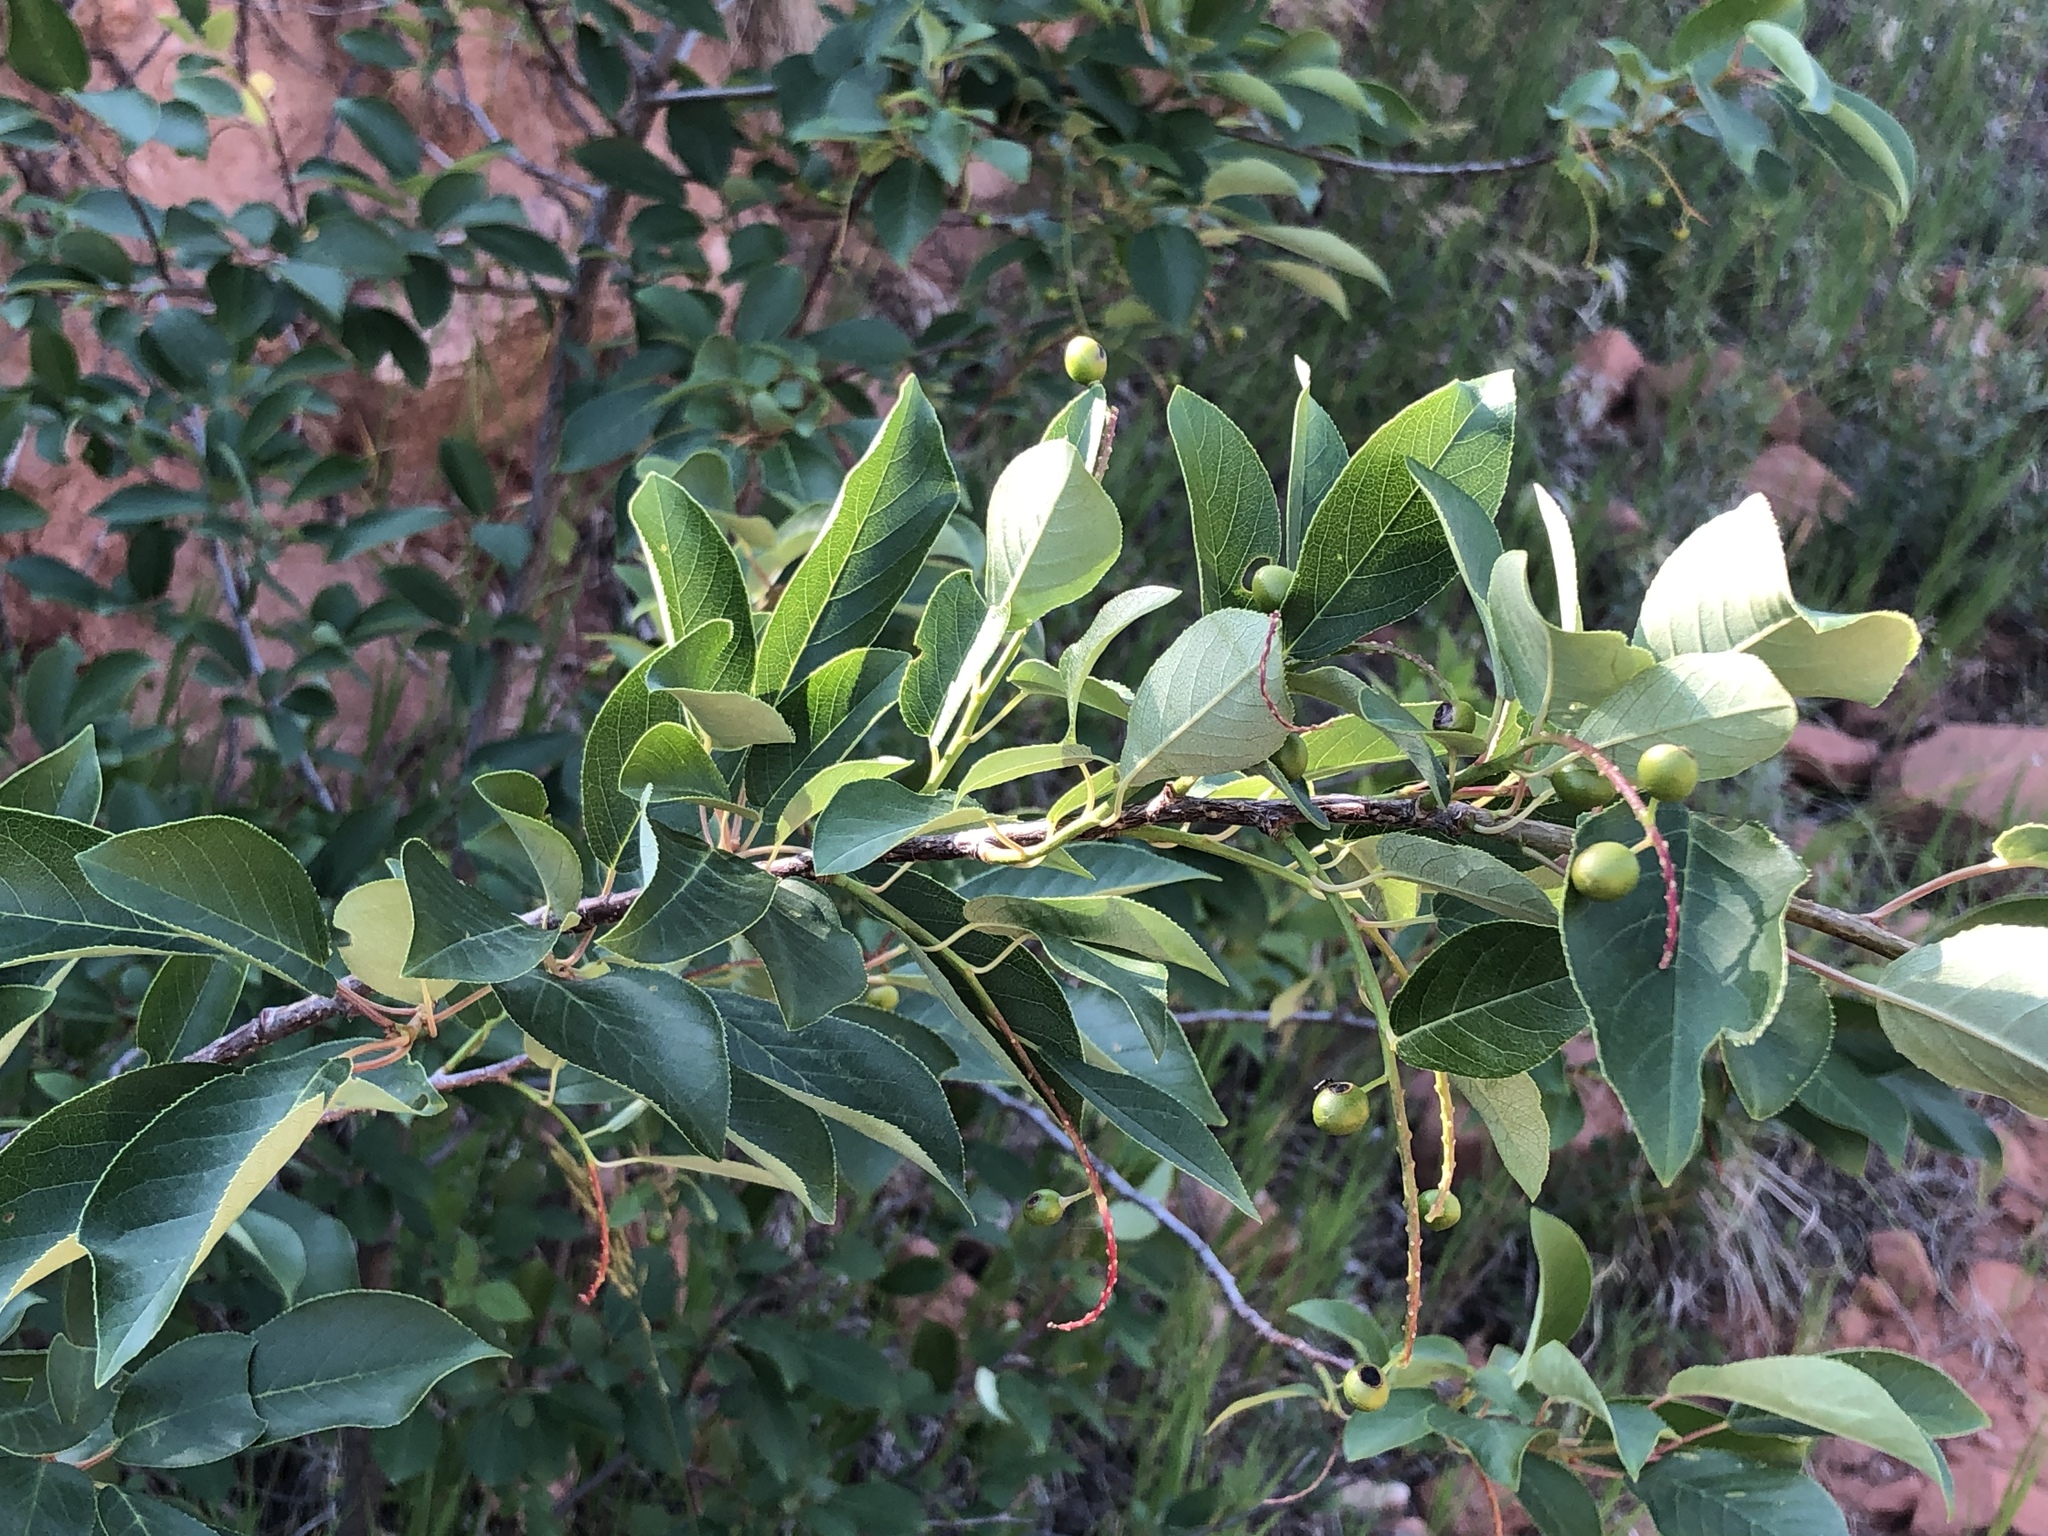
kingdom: Plantae
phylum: Tracheophyta
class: Magnoliopsida
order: Rosales
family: Rosaceae
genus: Prunus
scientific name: Prunus virginiana
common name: Chokecherry
